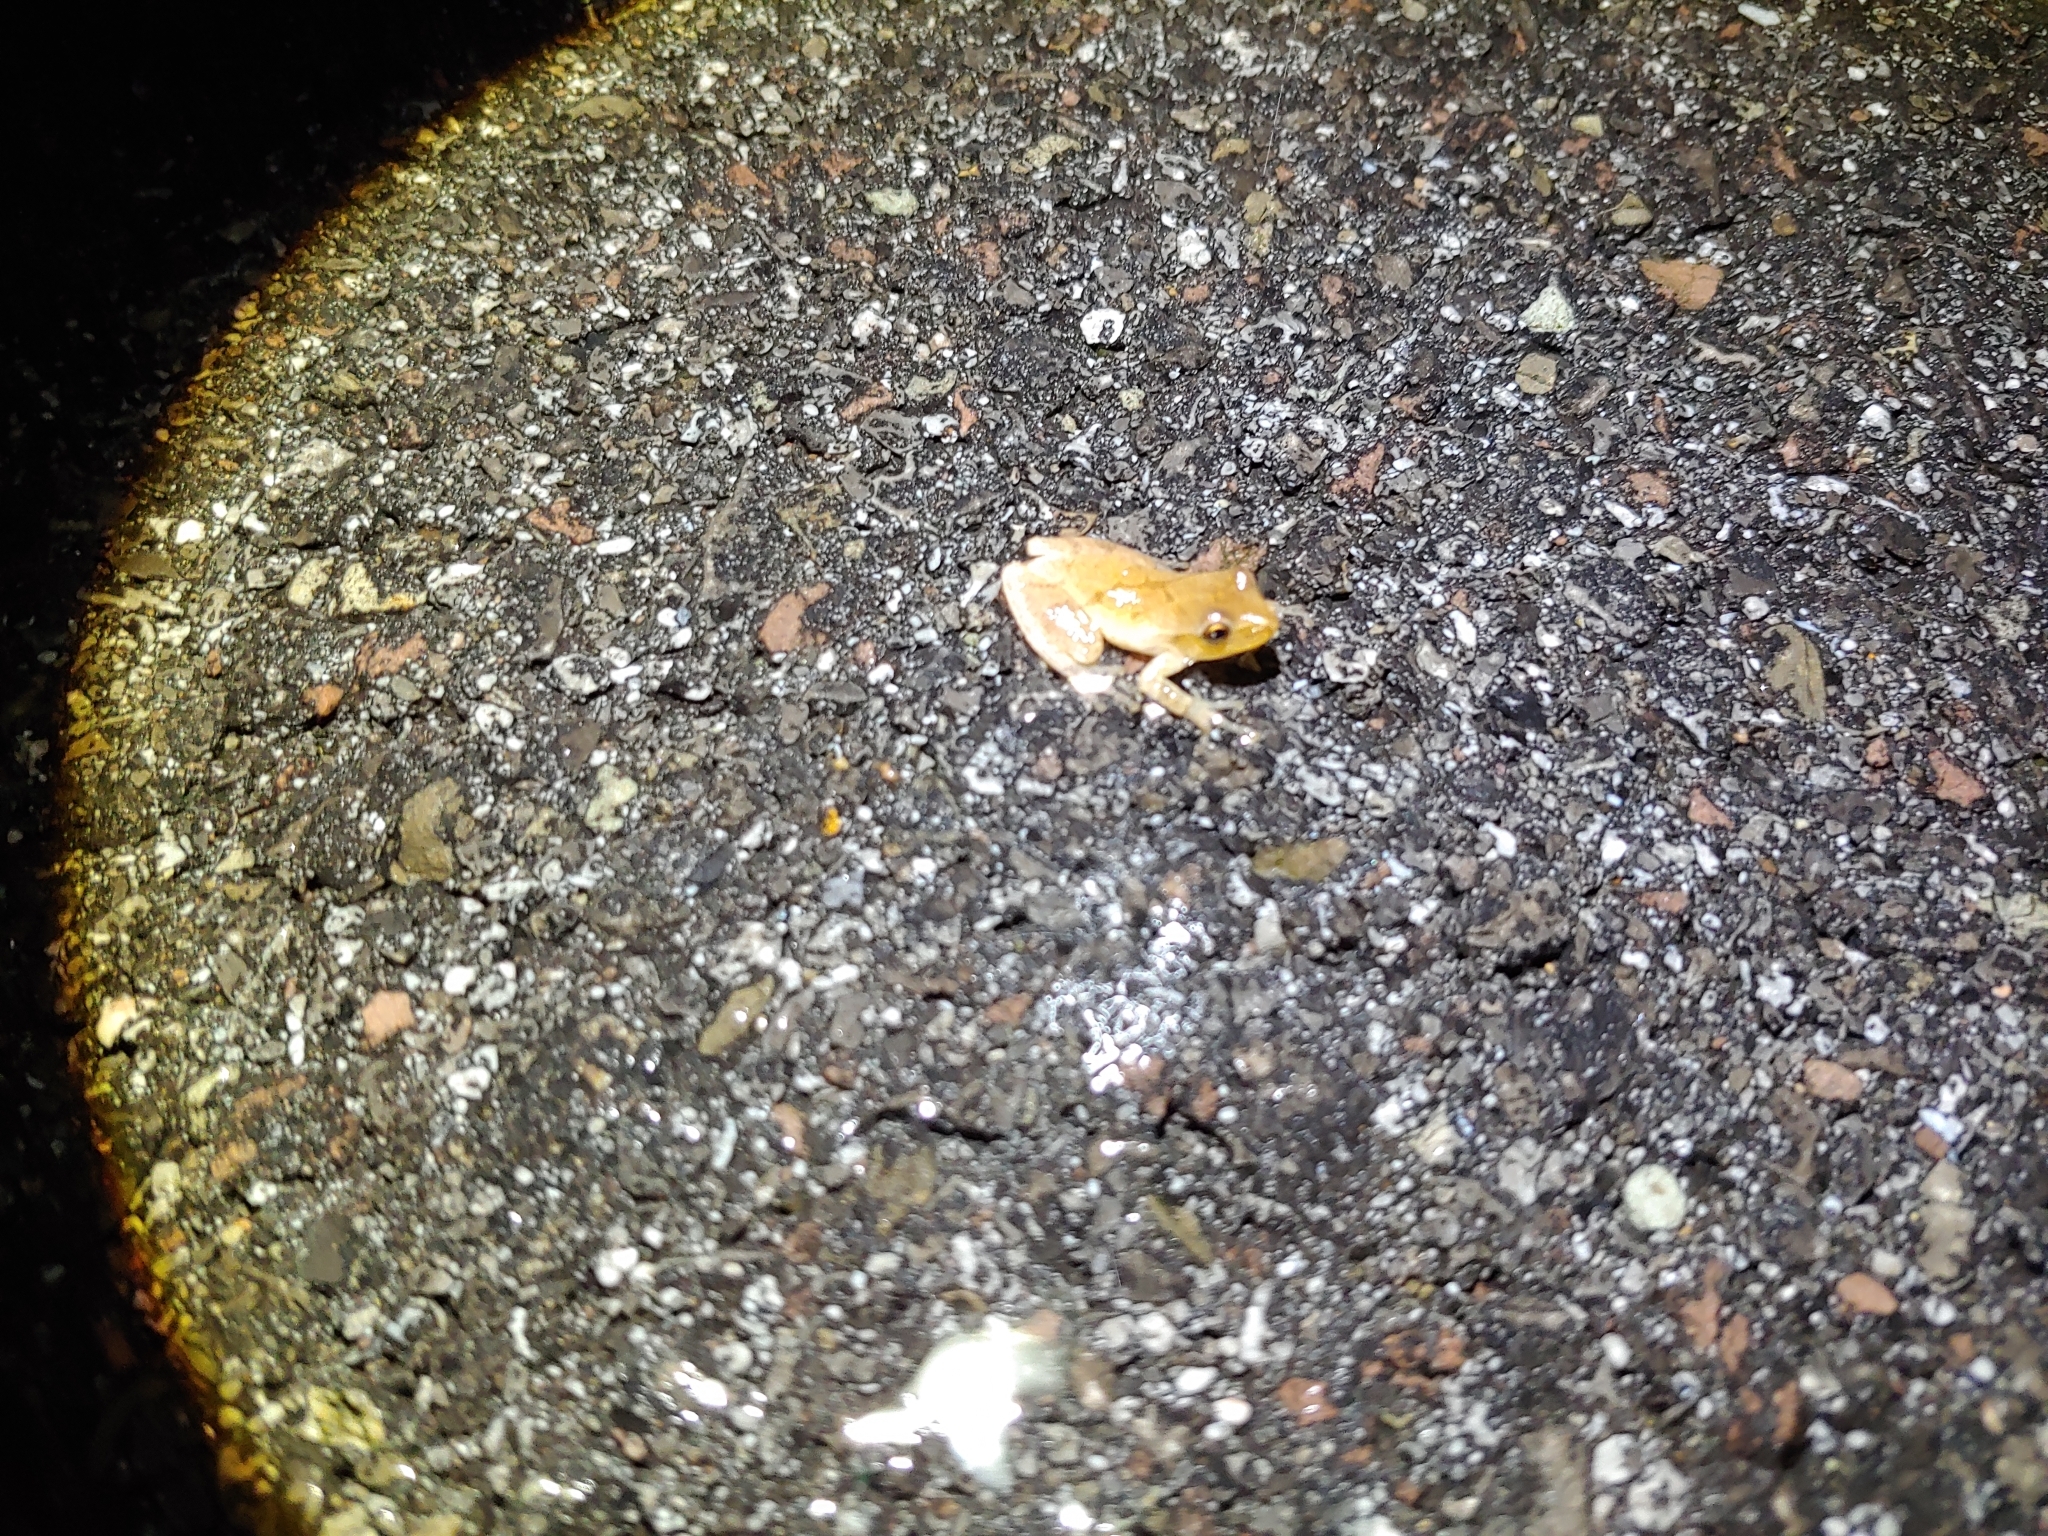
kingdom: Animalia
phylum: Chordata
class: Amphibia
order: Anura
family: Hylidae
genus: Pseudacris
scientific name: Pseudacris crucifer
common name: Spring peeper
